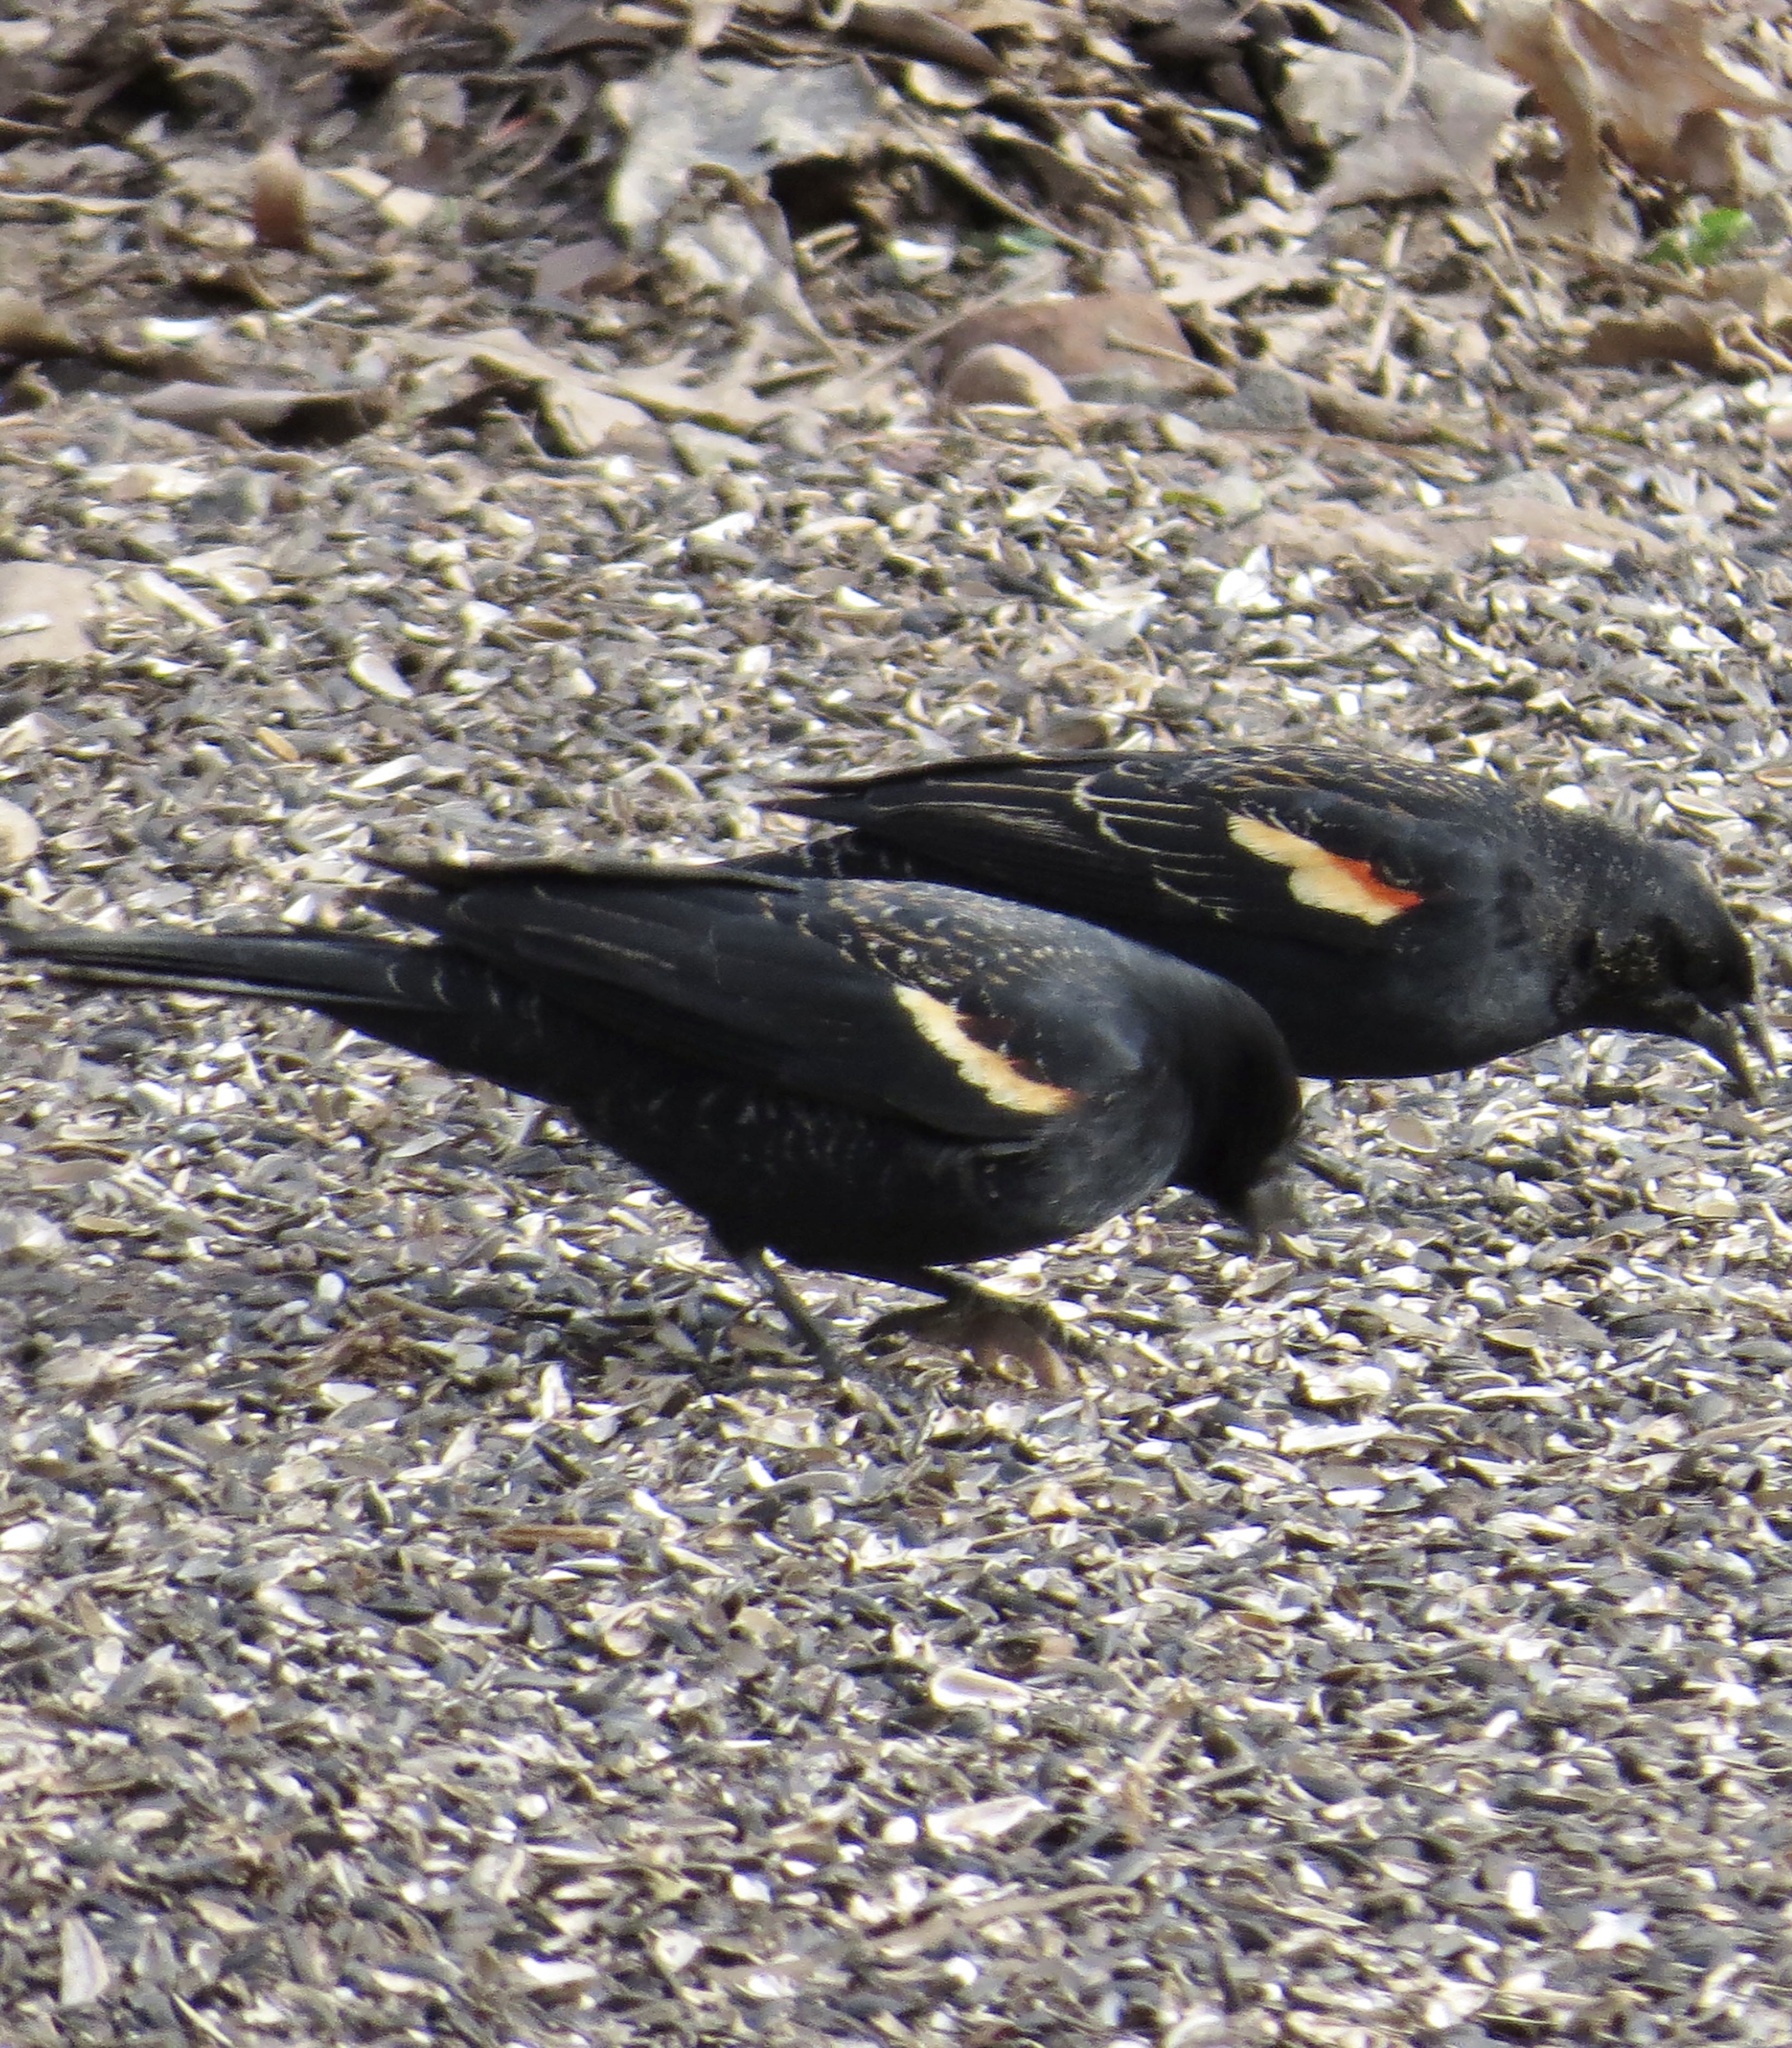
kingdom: Animalia
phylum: Chordata
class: Aves
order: Passeriformes
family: Icteridae
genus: Agelaius
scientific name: Agelaius phoeniceus
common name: Red-winged blackbird
